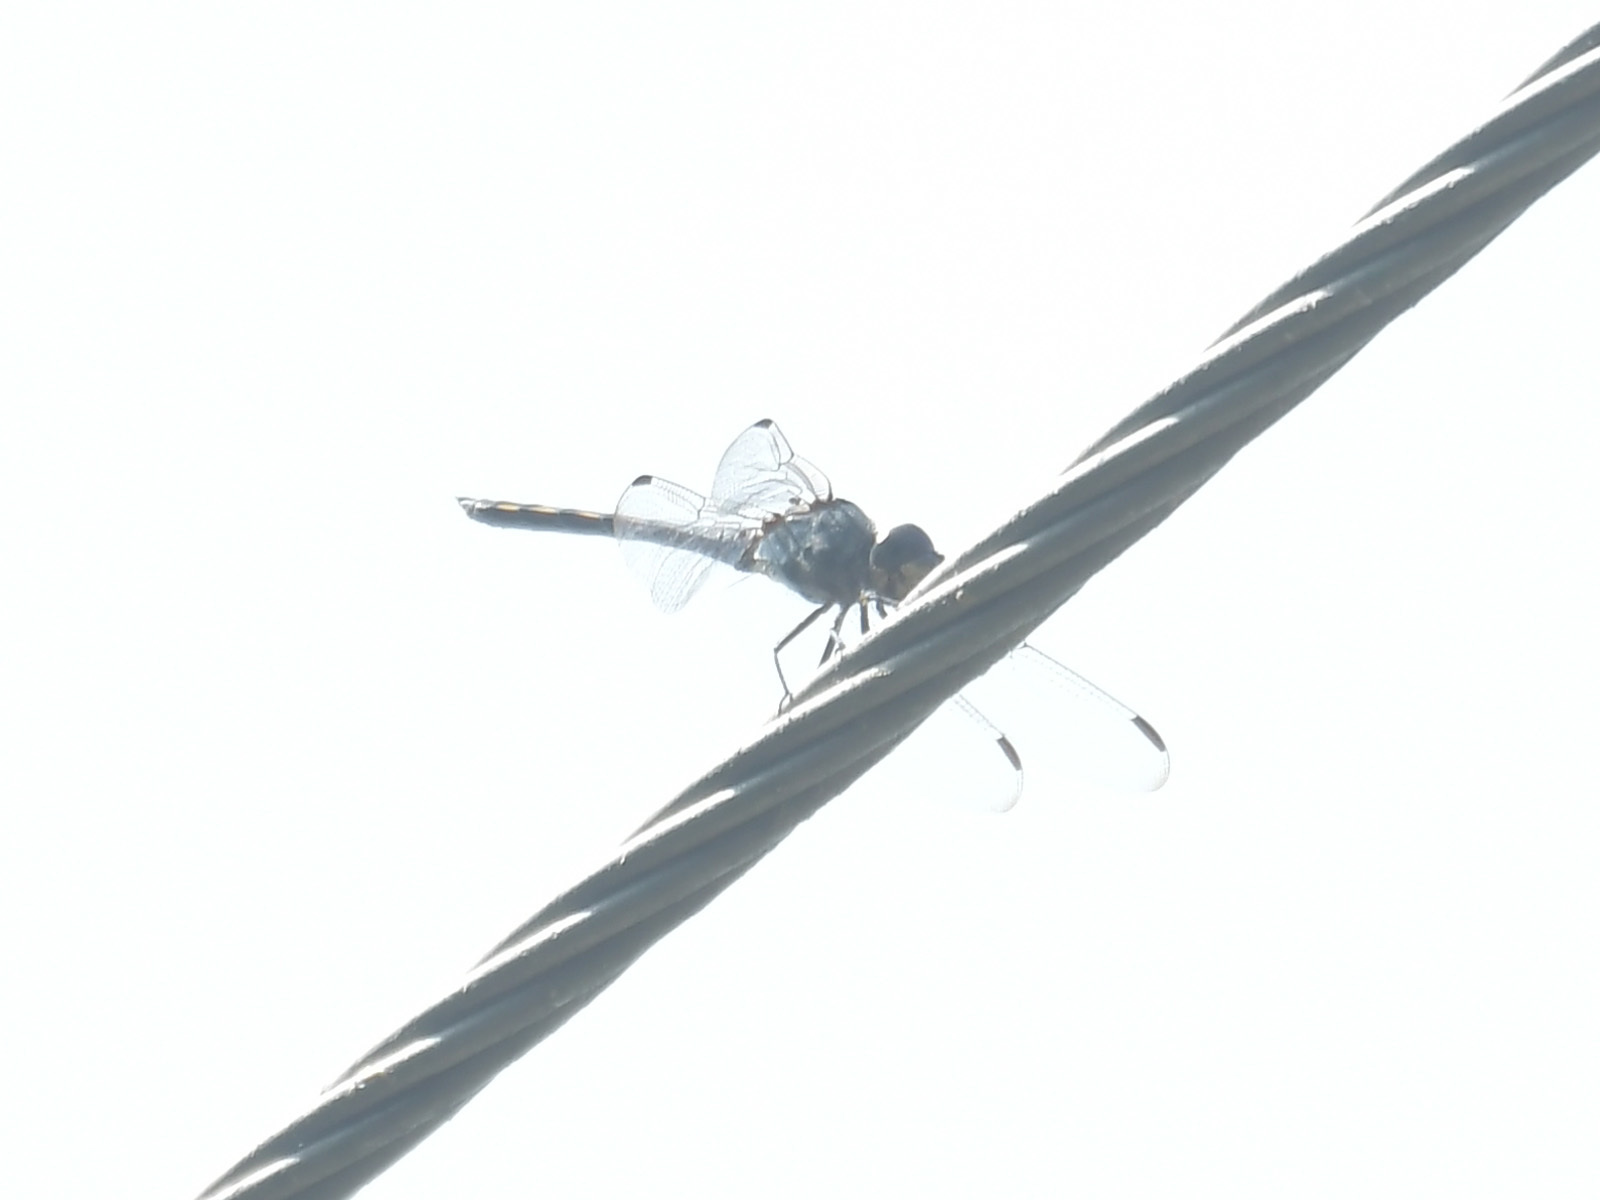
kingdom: Animalia
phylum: Arthropoda
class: Insecta
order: Odonata
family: Libellulidae
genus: Potamarcha
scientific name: Potamarcha congener
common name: Blue chaser
